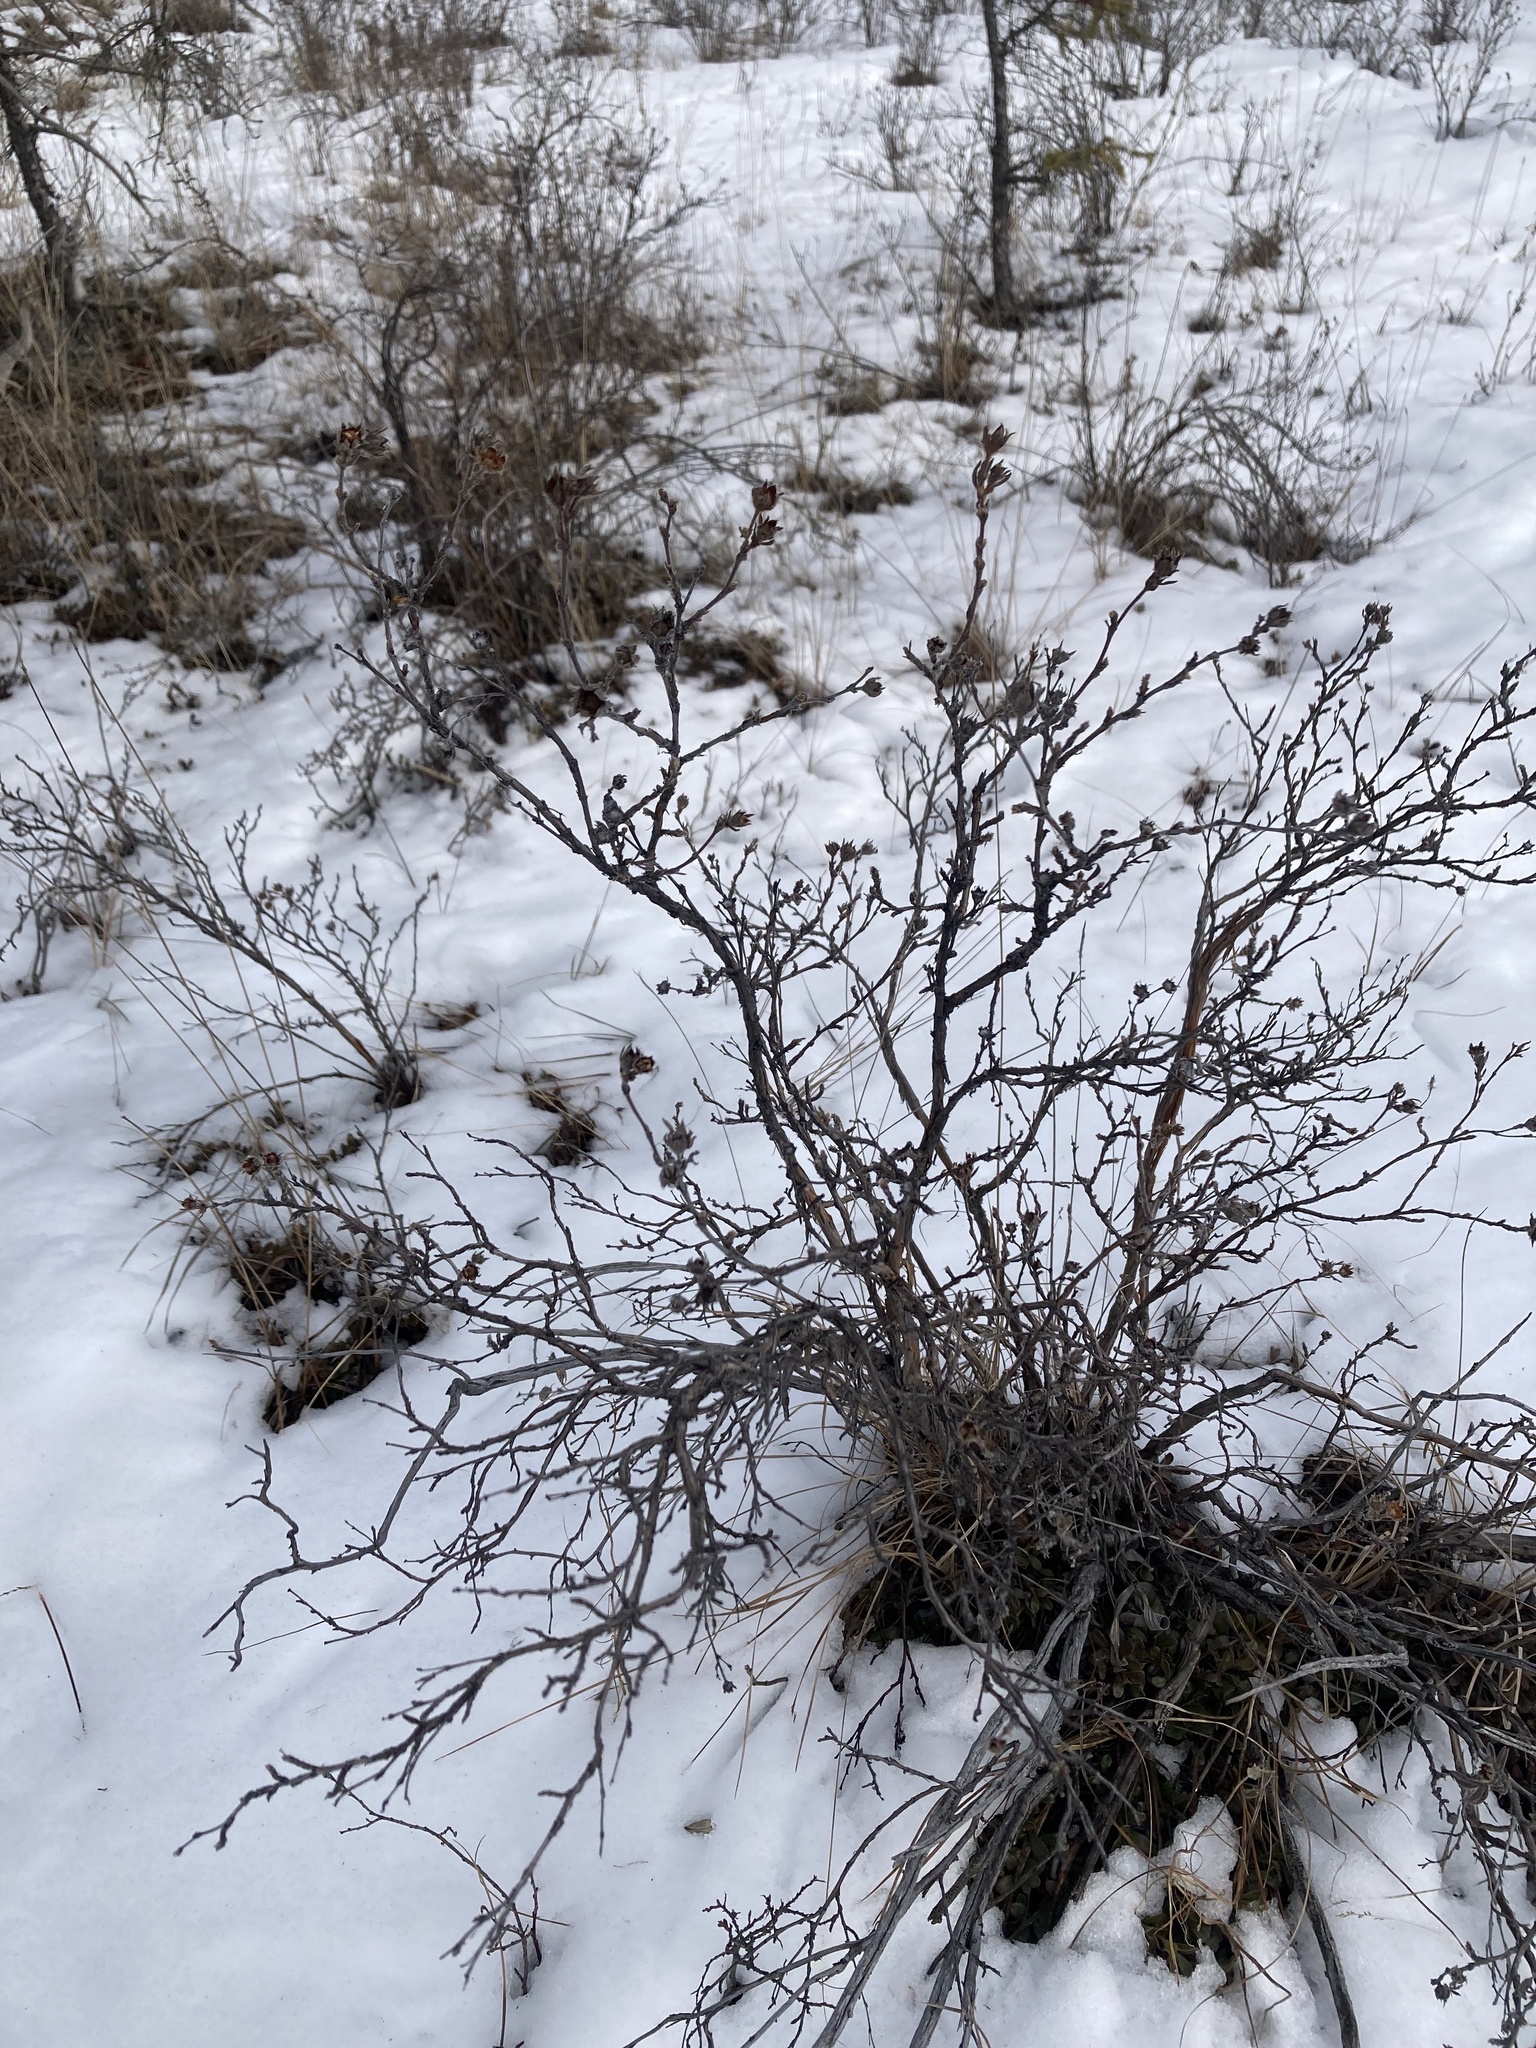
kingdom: Plantae
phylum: Tracheophyta
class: Magnoliopsida
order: Rosales
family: Rosaceae
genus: Dasiphora
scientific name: Dasiphora fruticosa
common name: Shrubby cinquefoil
